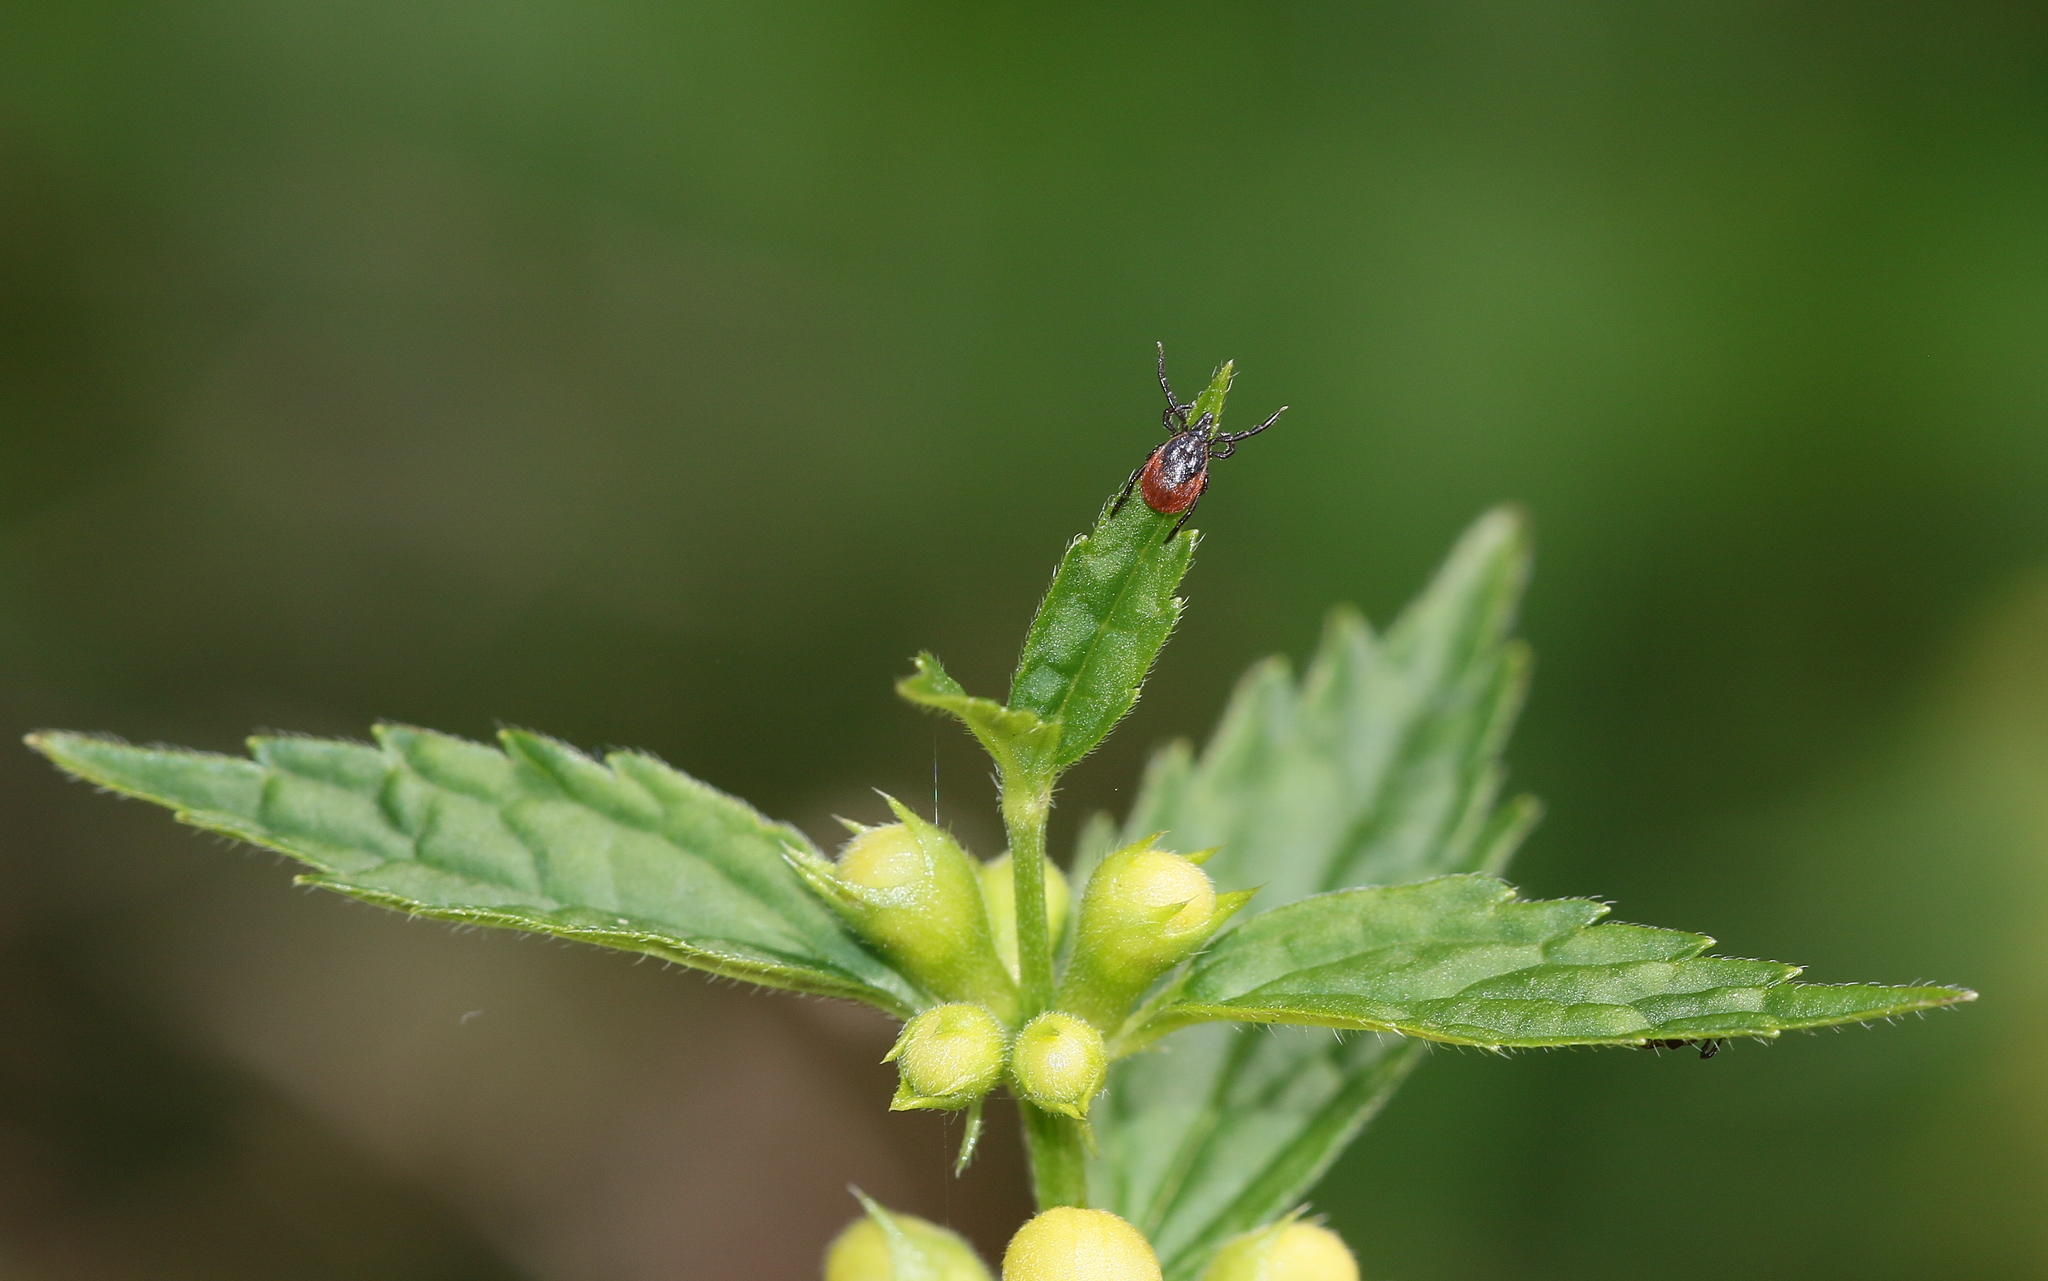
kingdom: Animalia
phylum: Arthropoda
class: Arachnida
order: Ixodida
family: Ixodidae
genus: Ixodes
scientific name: Ixodes ricinus
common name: Castor bean tick
